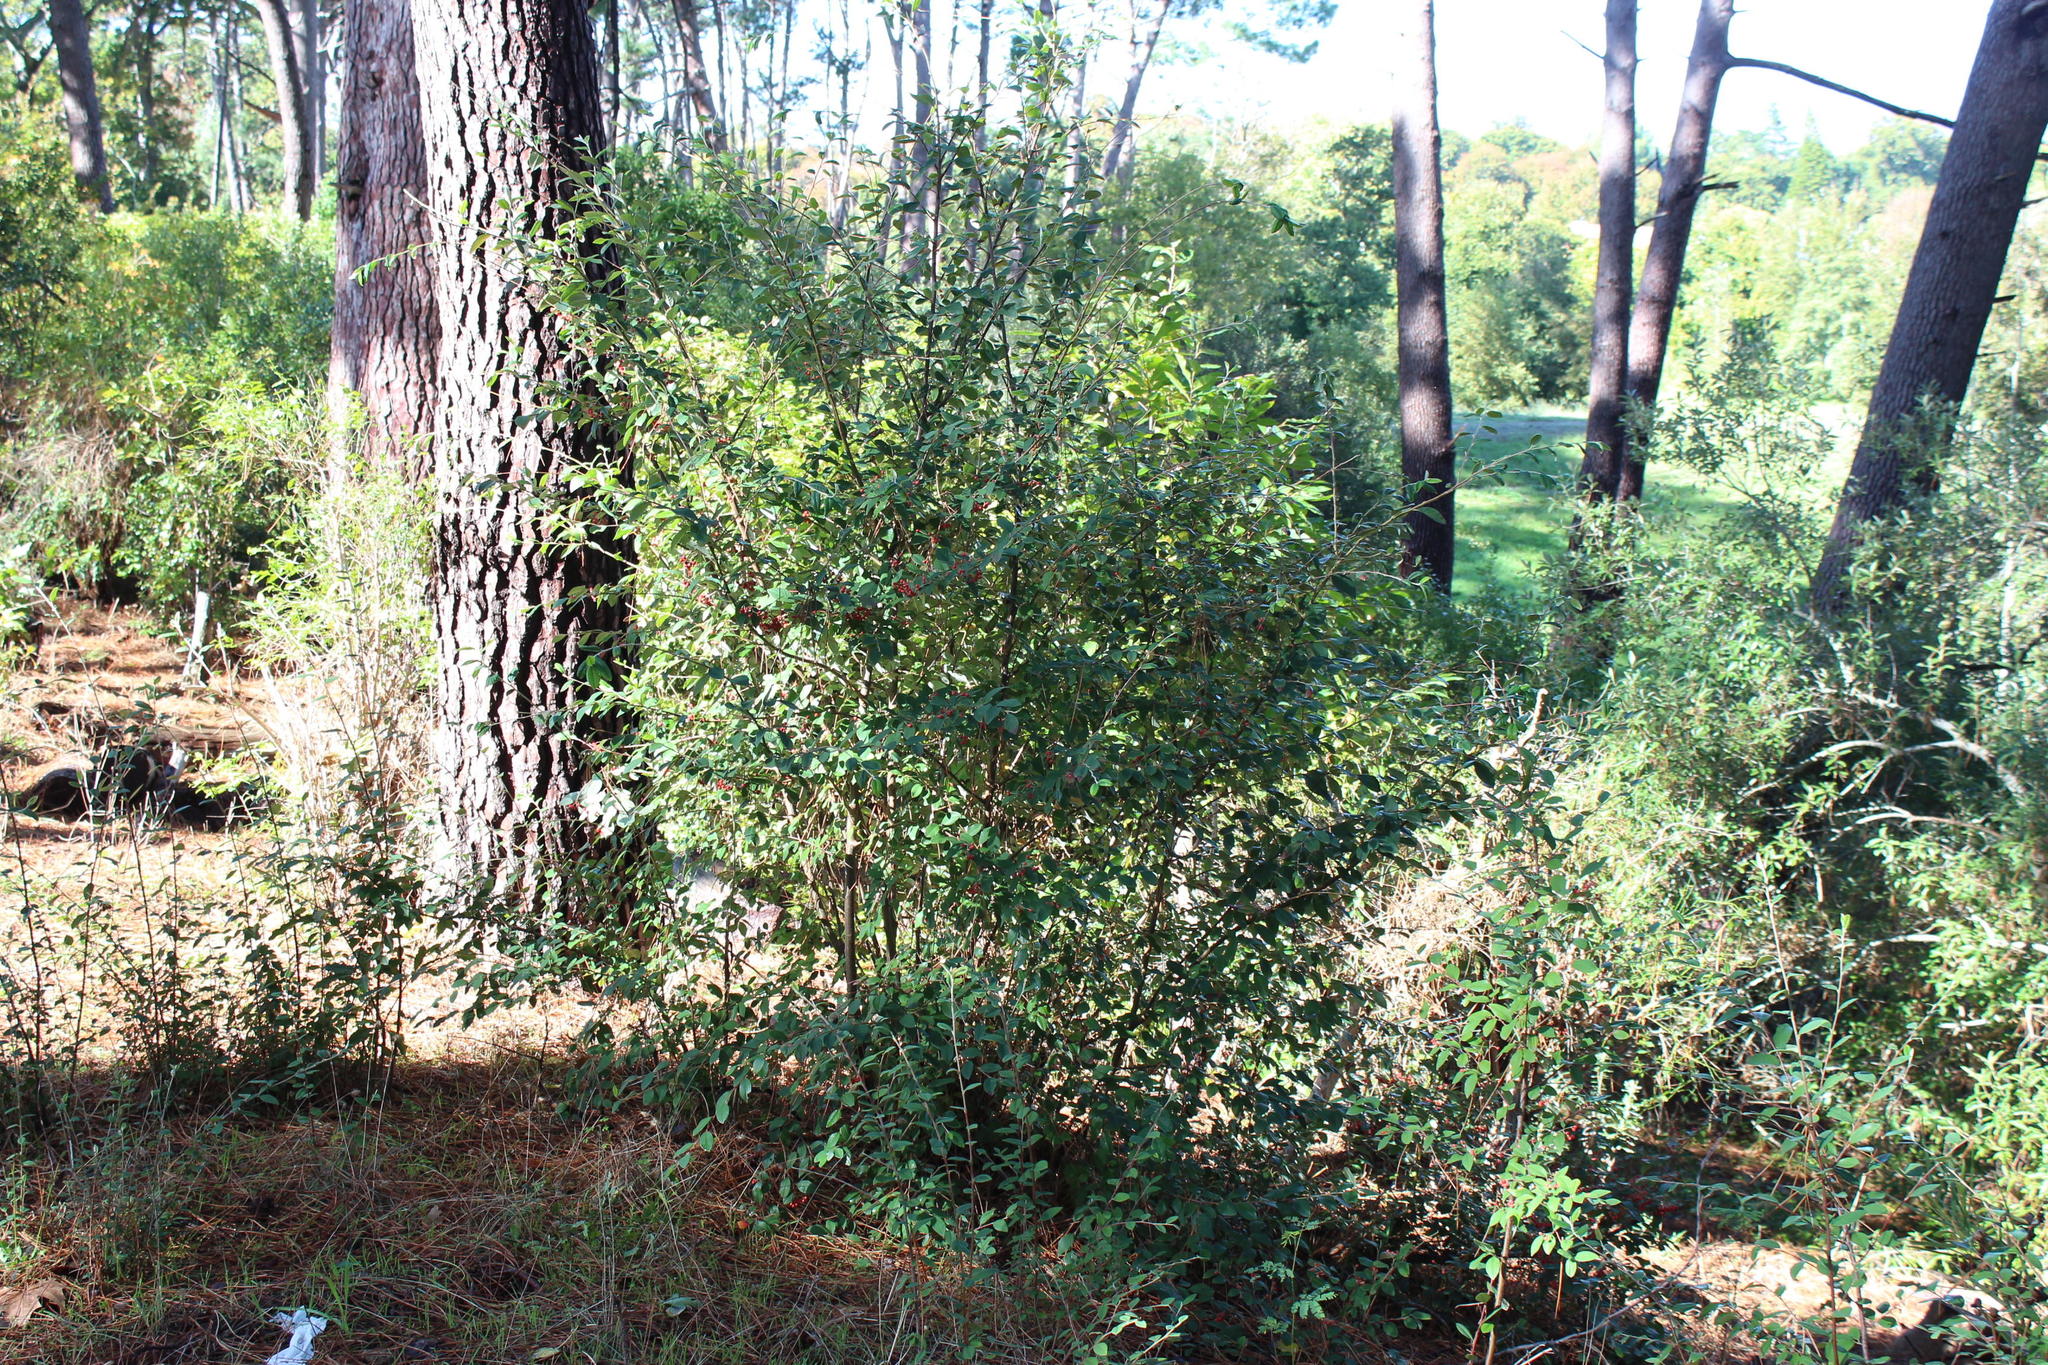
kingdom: Plantae
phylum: Tracheophyta
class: Magnoliopsida
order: Rosales
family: Rosaceae
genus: Cotoneaster
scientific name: Cotoneaster glaucophyllus
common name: Glaucous cotoneaster
